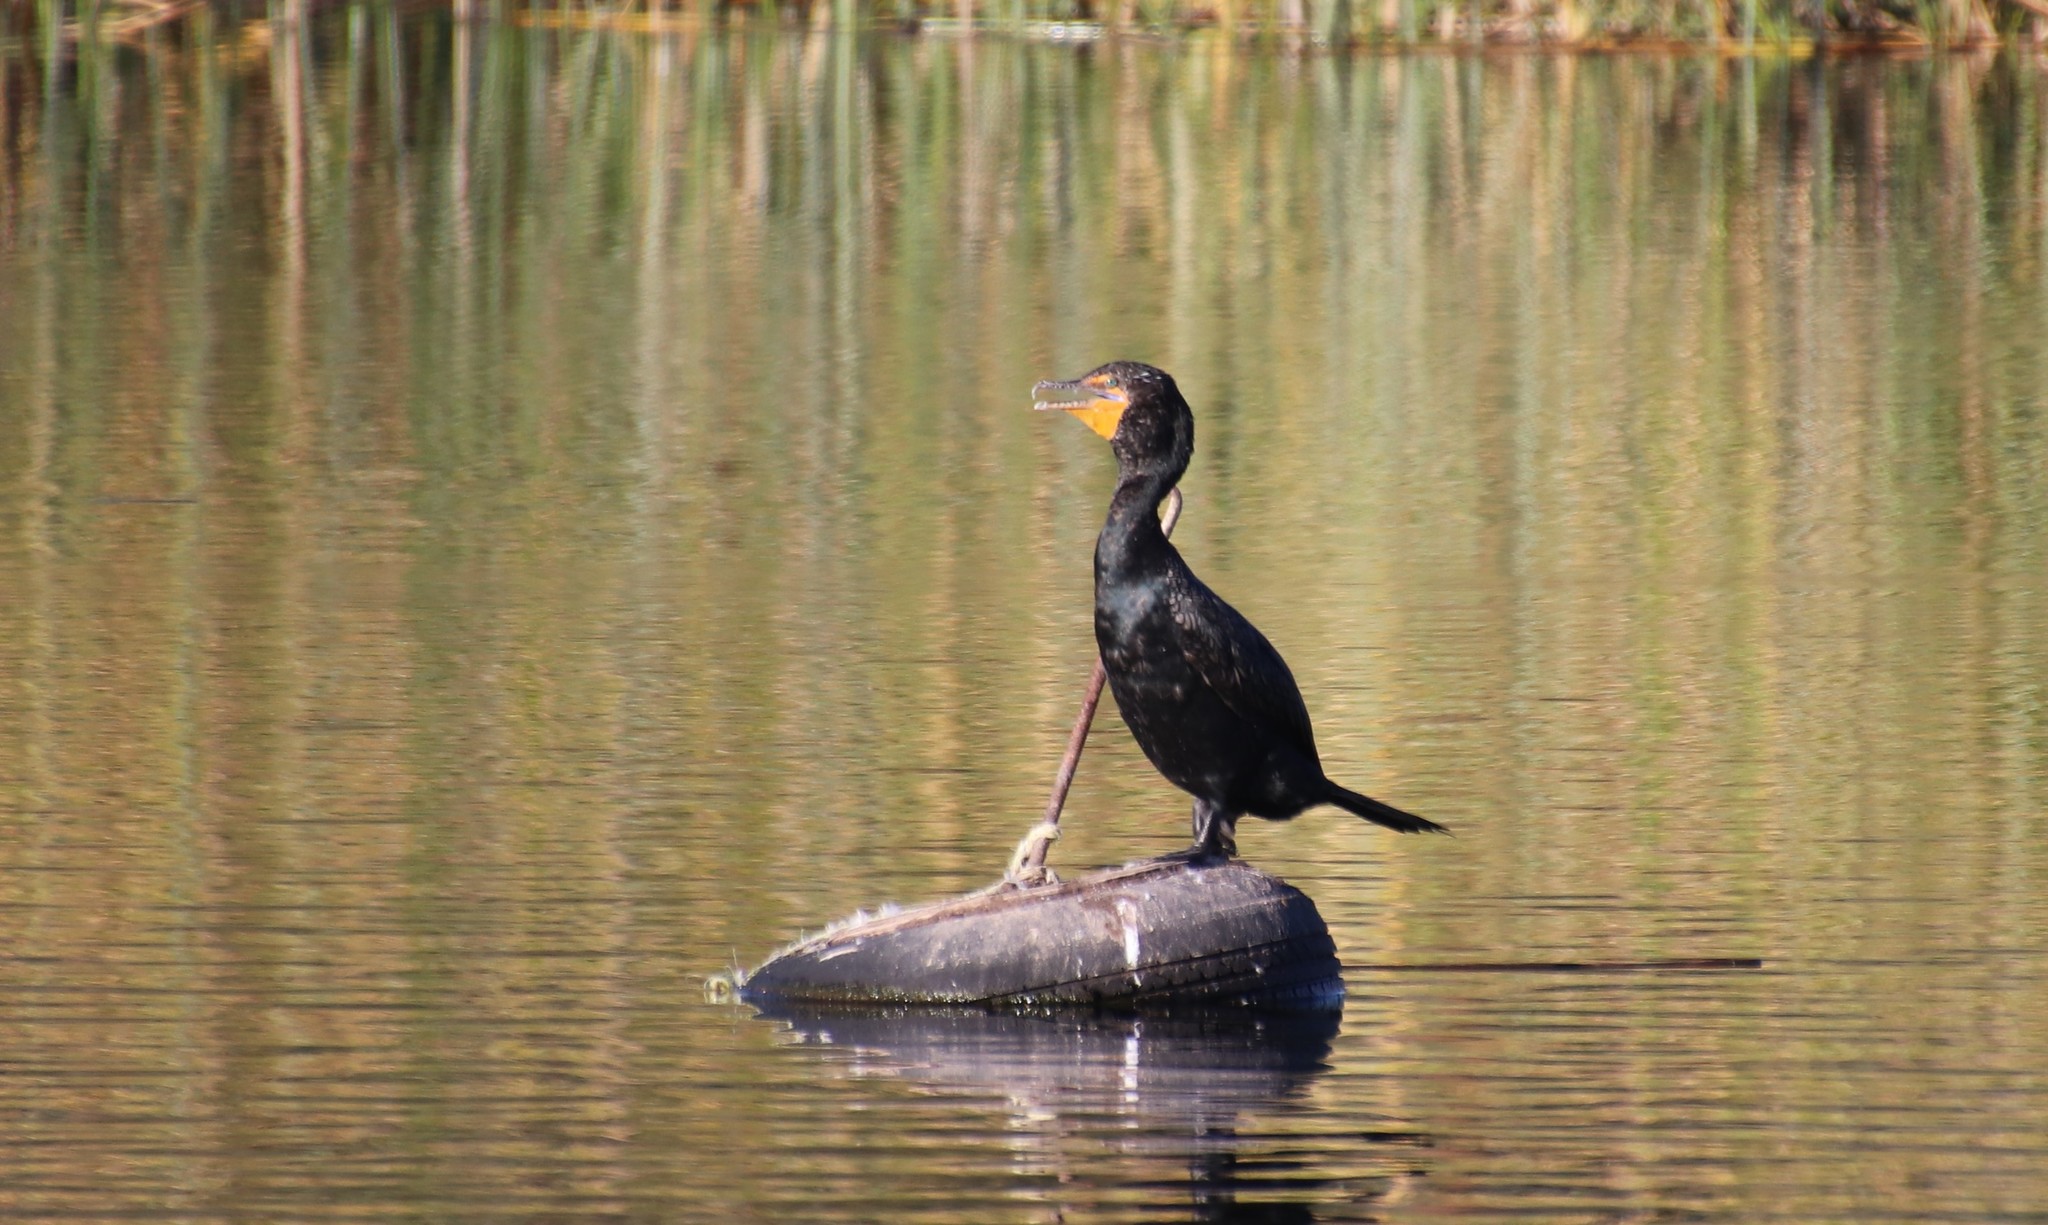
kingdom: Animalia
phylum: Chordata
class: Aves
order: Suliformes
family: Phalacrocoracidae
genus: Phalacrocorax
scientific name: Phalacrocorax auritus
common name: Double-crested cormorant
